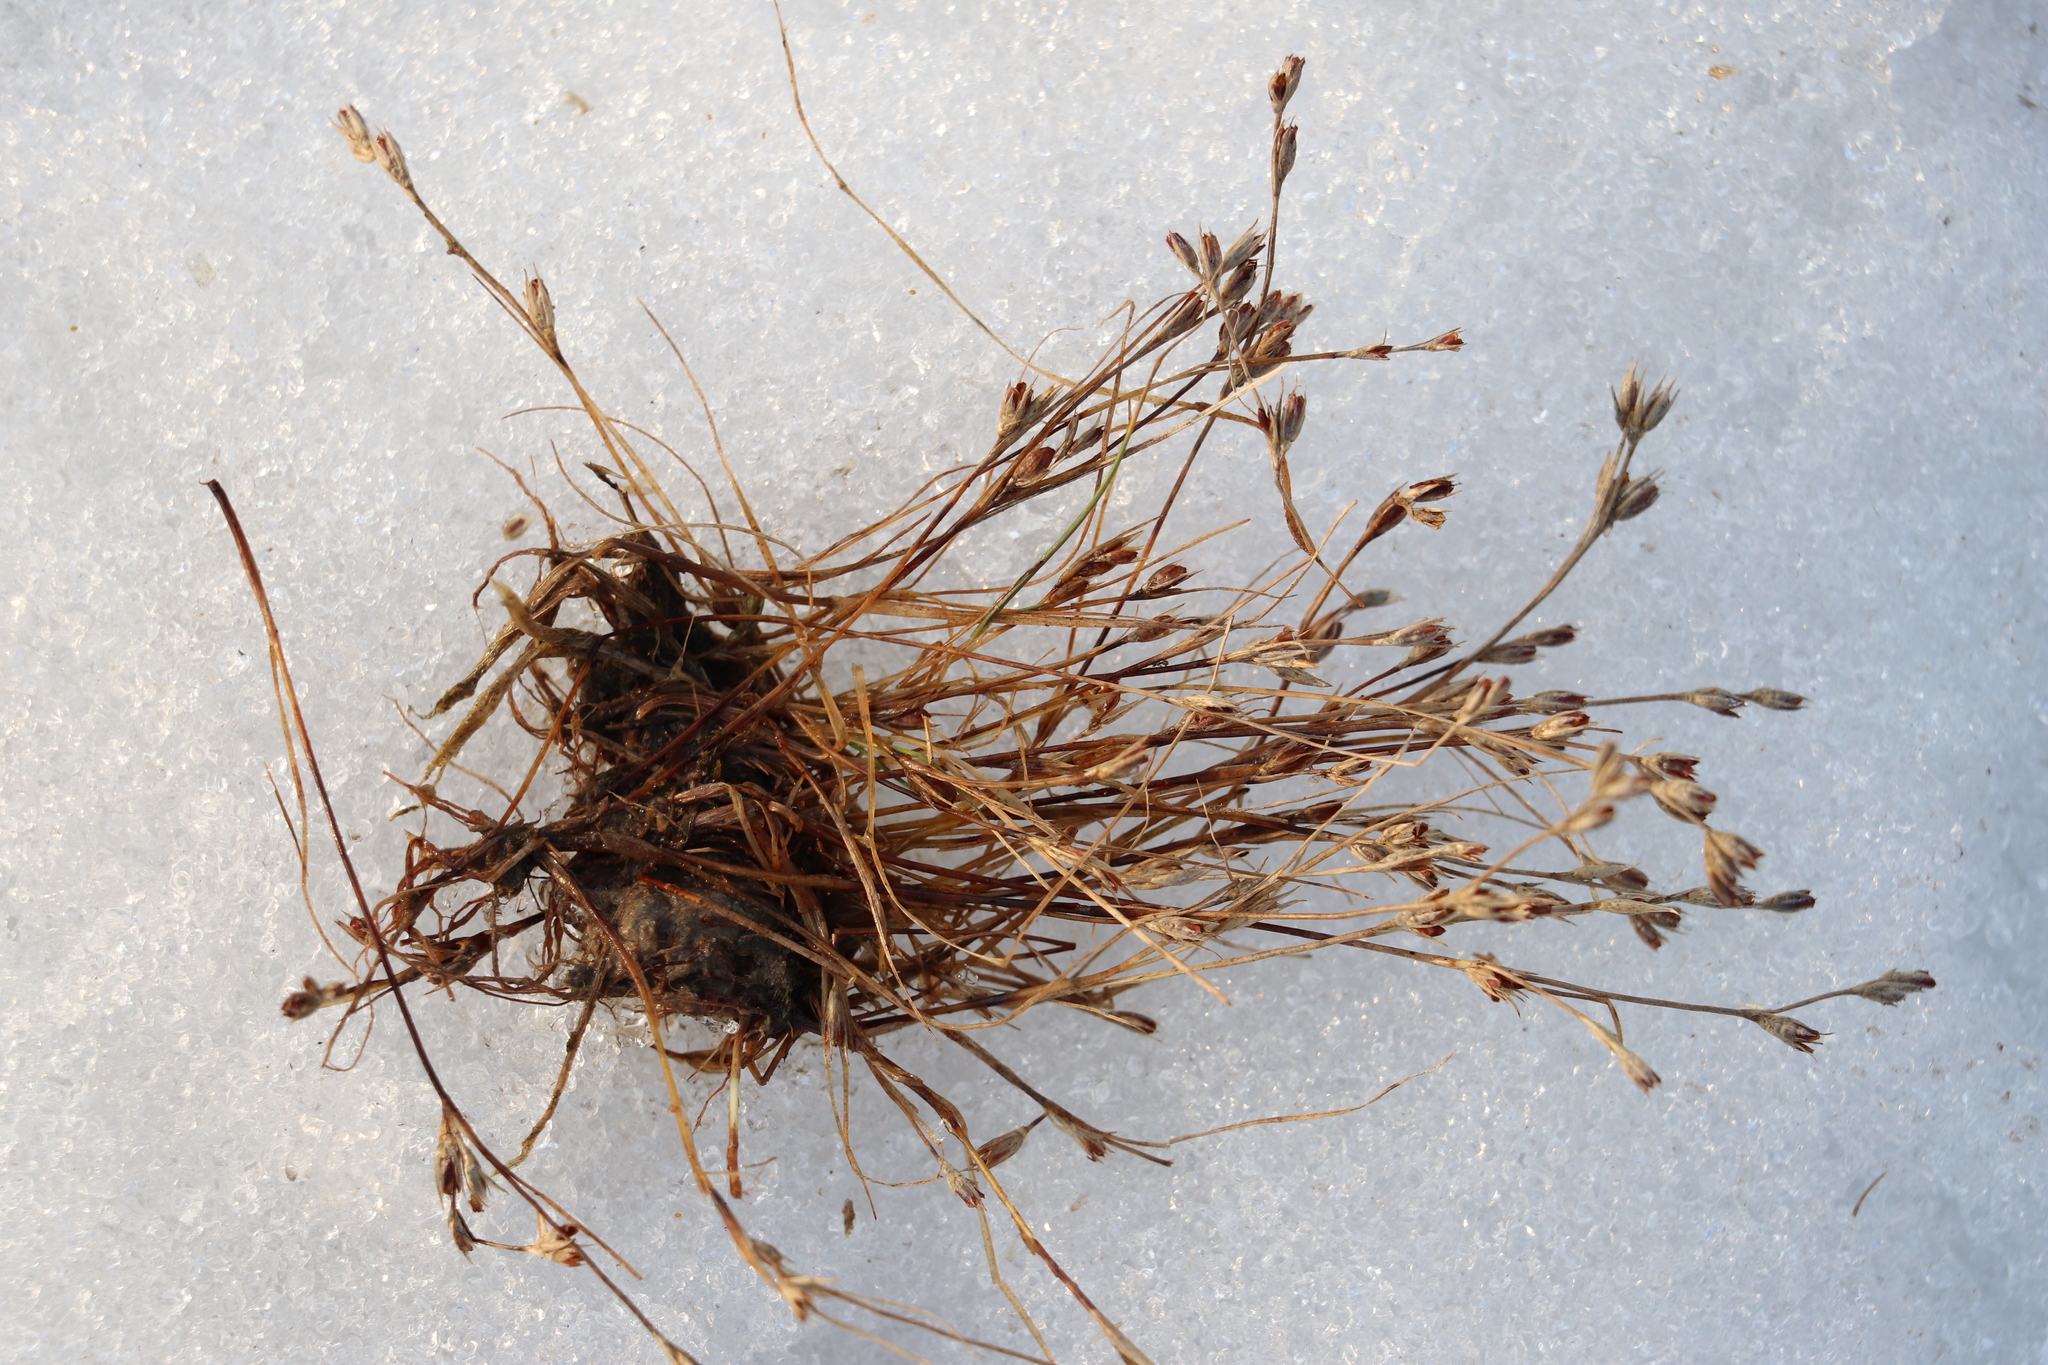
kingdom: Plantae
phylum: Tracheophyta
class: Liliopsida
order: Poales
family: Juncaceae
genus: Juncus
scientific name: Juncus bufonius
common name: Toad rush
